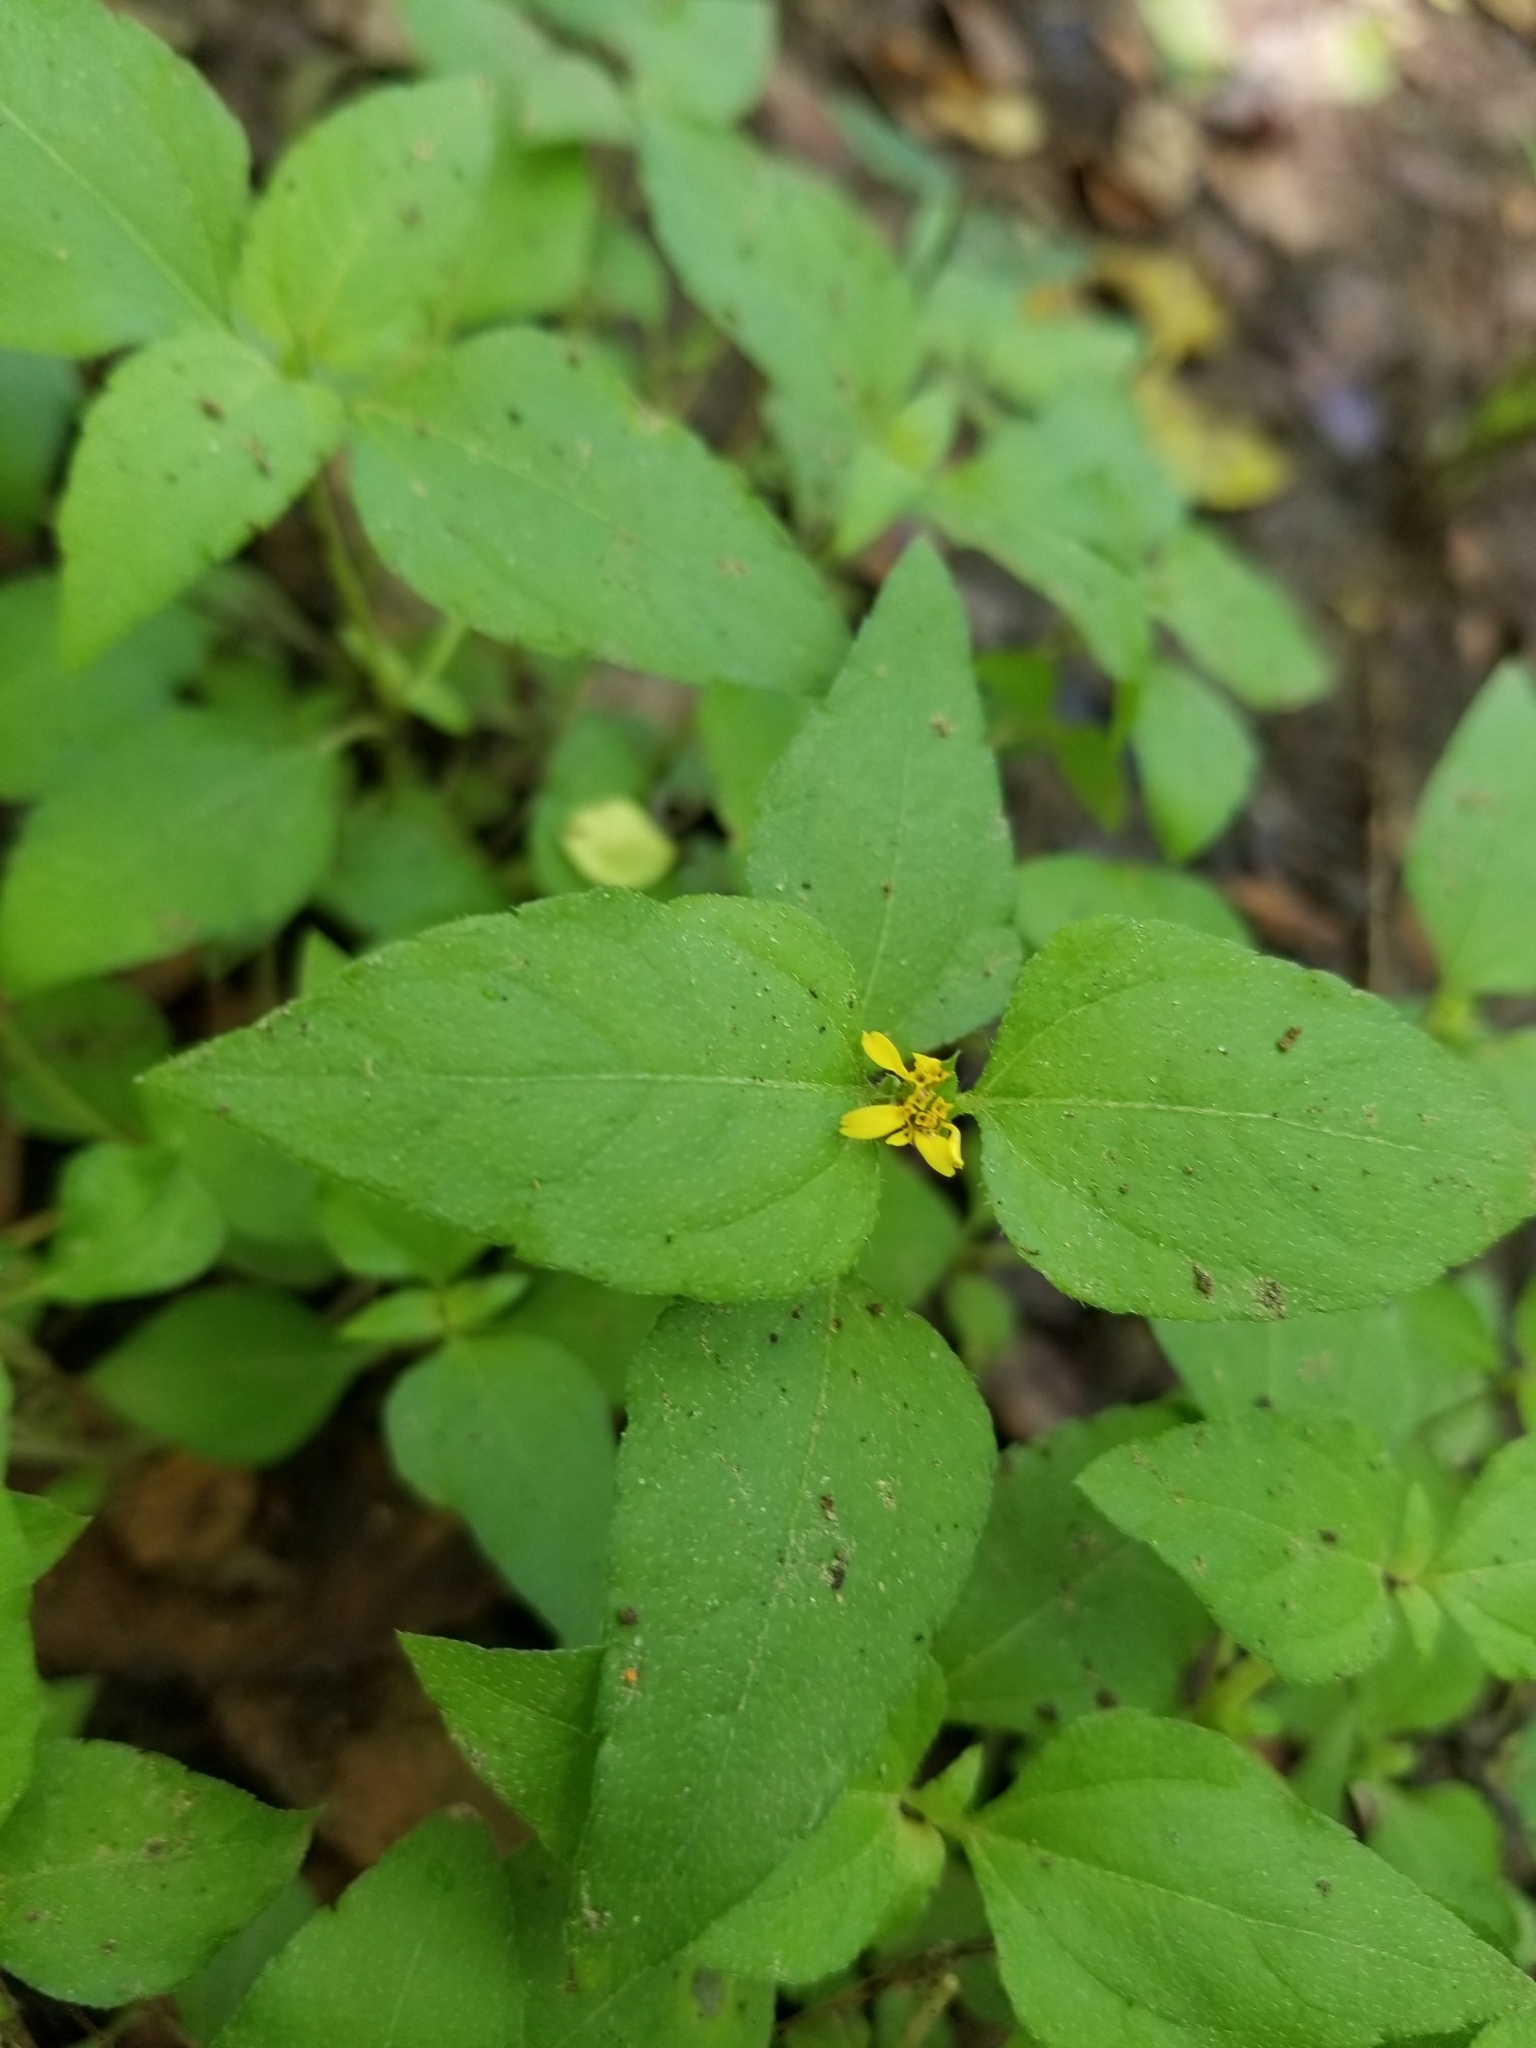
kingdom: Plantae
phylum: Tracheophyta
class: Magnoliopsida
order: Asterales
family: Asteraceae
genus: Calyptocarpus
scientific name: Calyptocarpus vialis
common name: Straggler daisy
